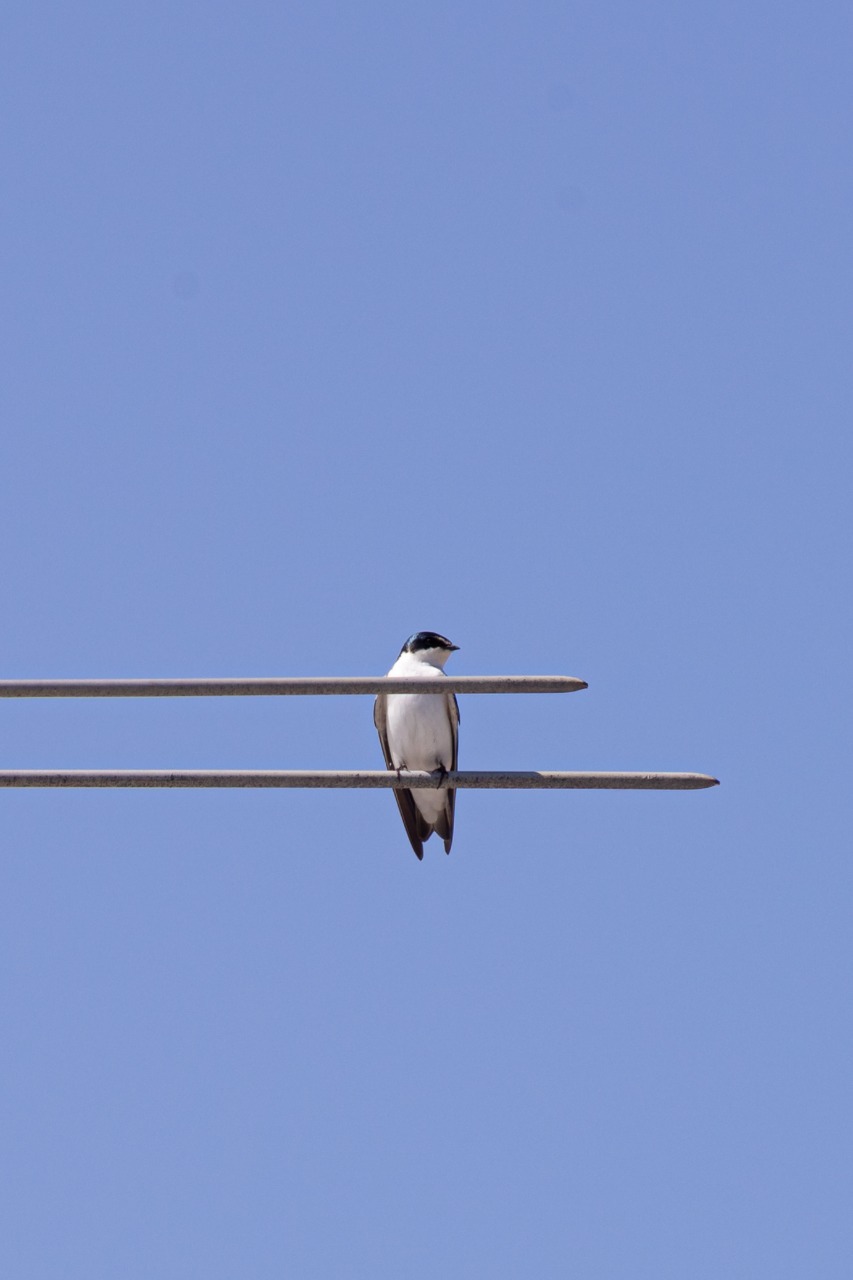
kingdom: Animalia
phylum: Chordata
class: Aves
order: Passeriformes
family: Hirundinidae
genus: Tachycineta
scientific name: Tachycineta leucorrhoa
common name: White-rumped swallow
